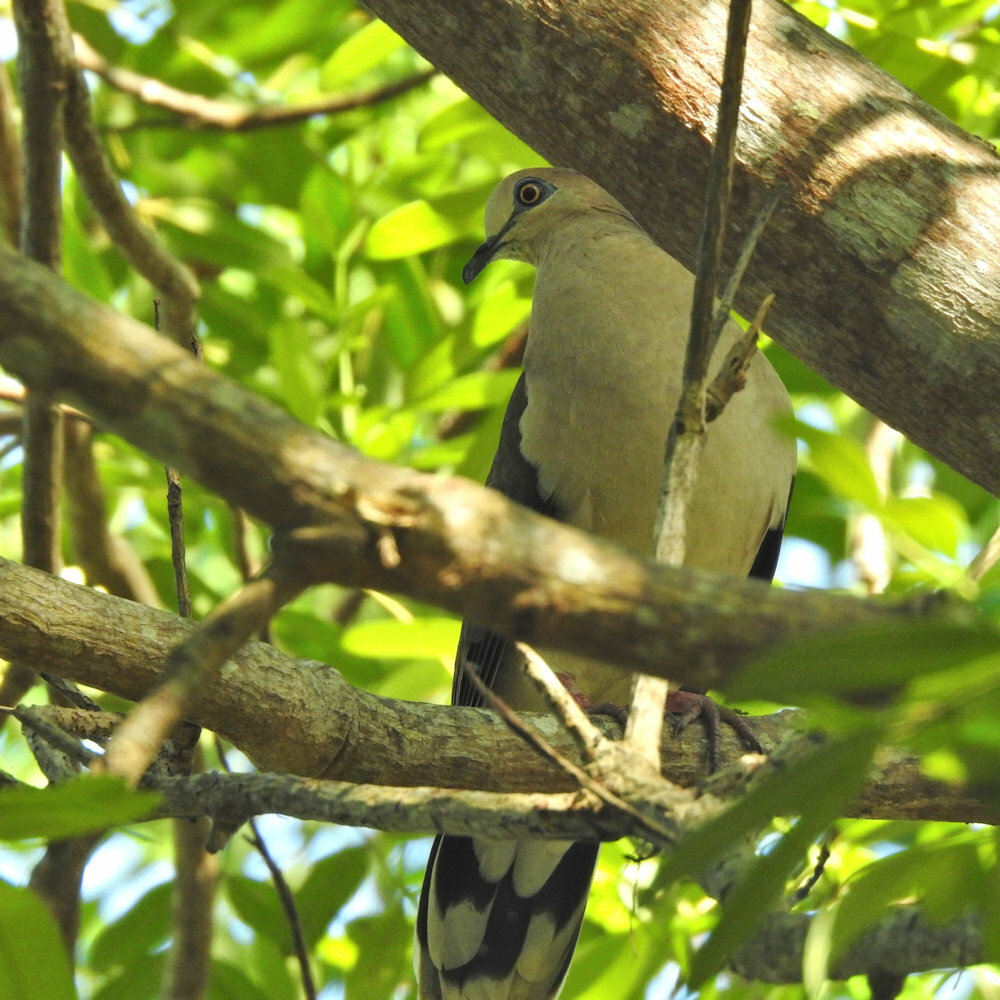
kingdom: Animalia
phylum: Chordata
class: Aves
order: Columbiformes
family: Columbidae
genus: Leptotila
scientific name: Leptotila verreauxi
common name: White-tipped dove
